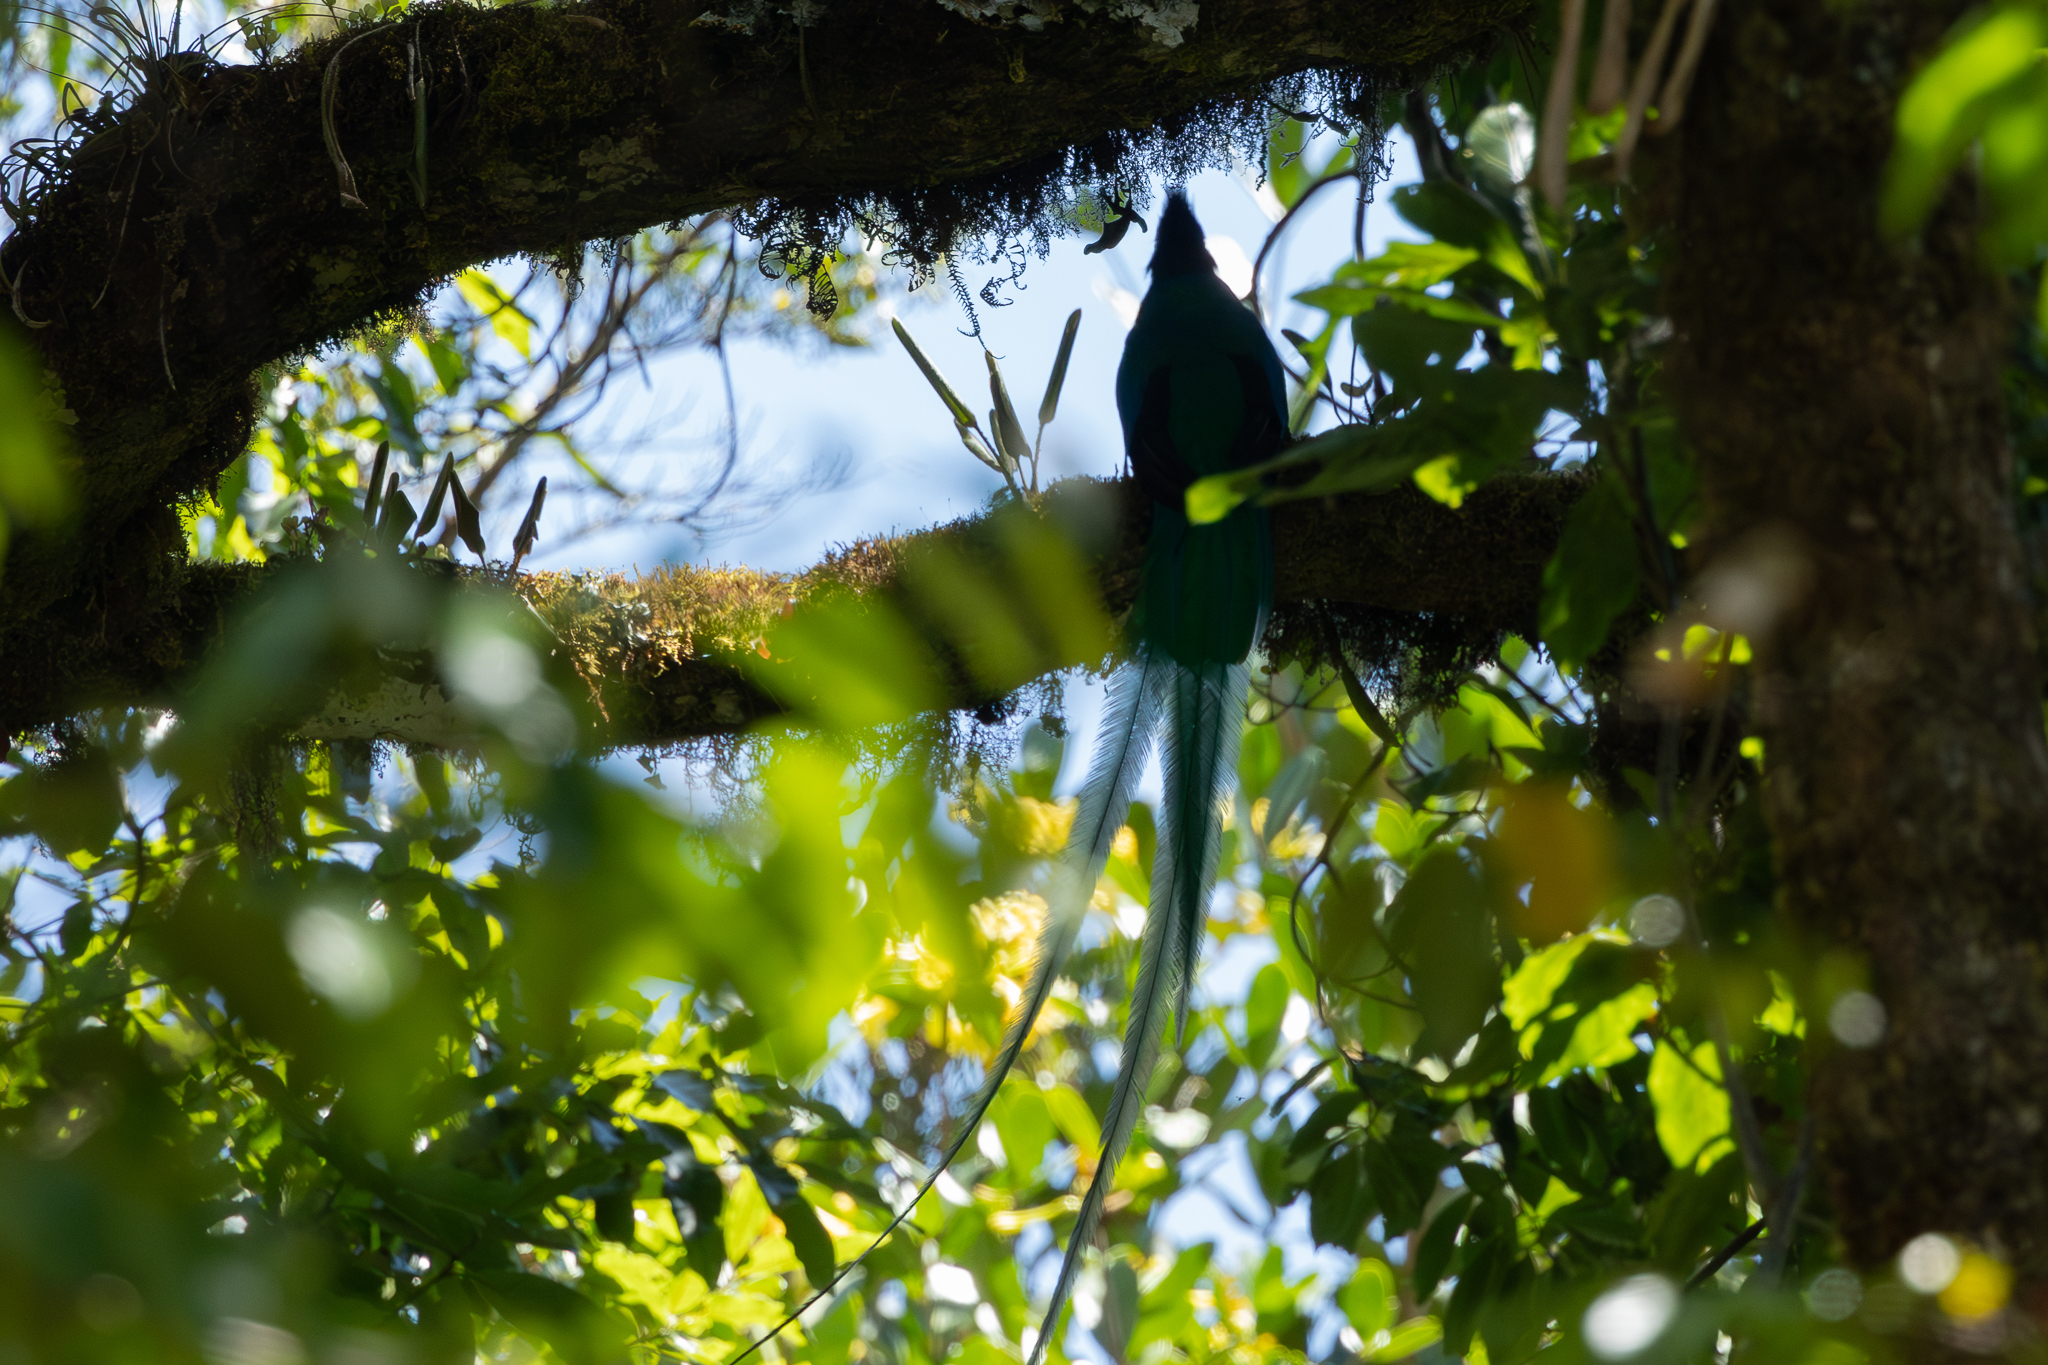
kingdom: Animalia
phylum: Chordata
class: Aves
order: Trogoniformes
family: Trogonidae
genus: Pharomachrus
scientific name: Pharomachrus mocinno
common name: Resplendent quetzal
